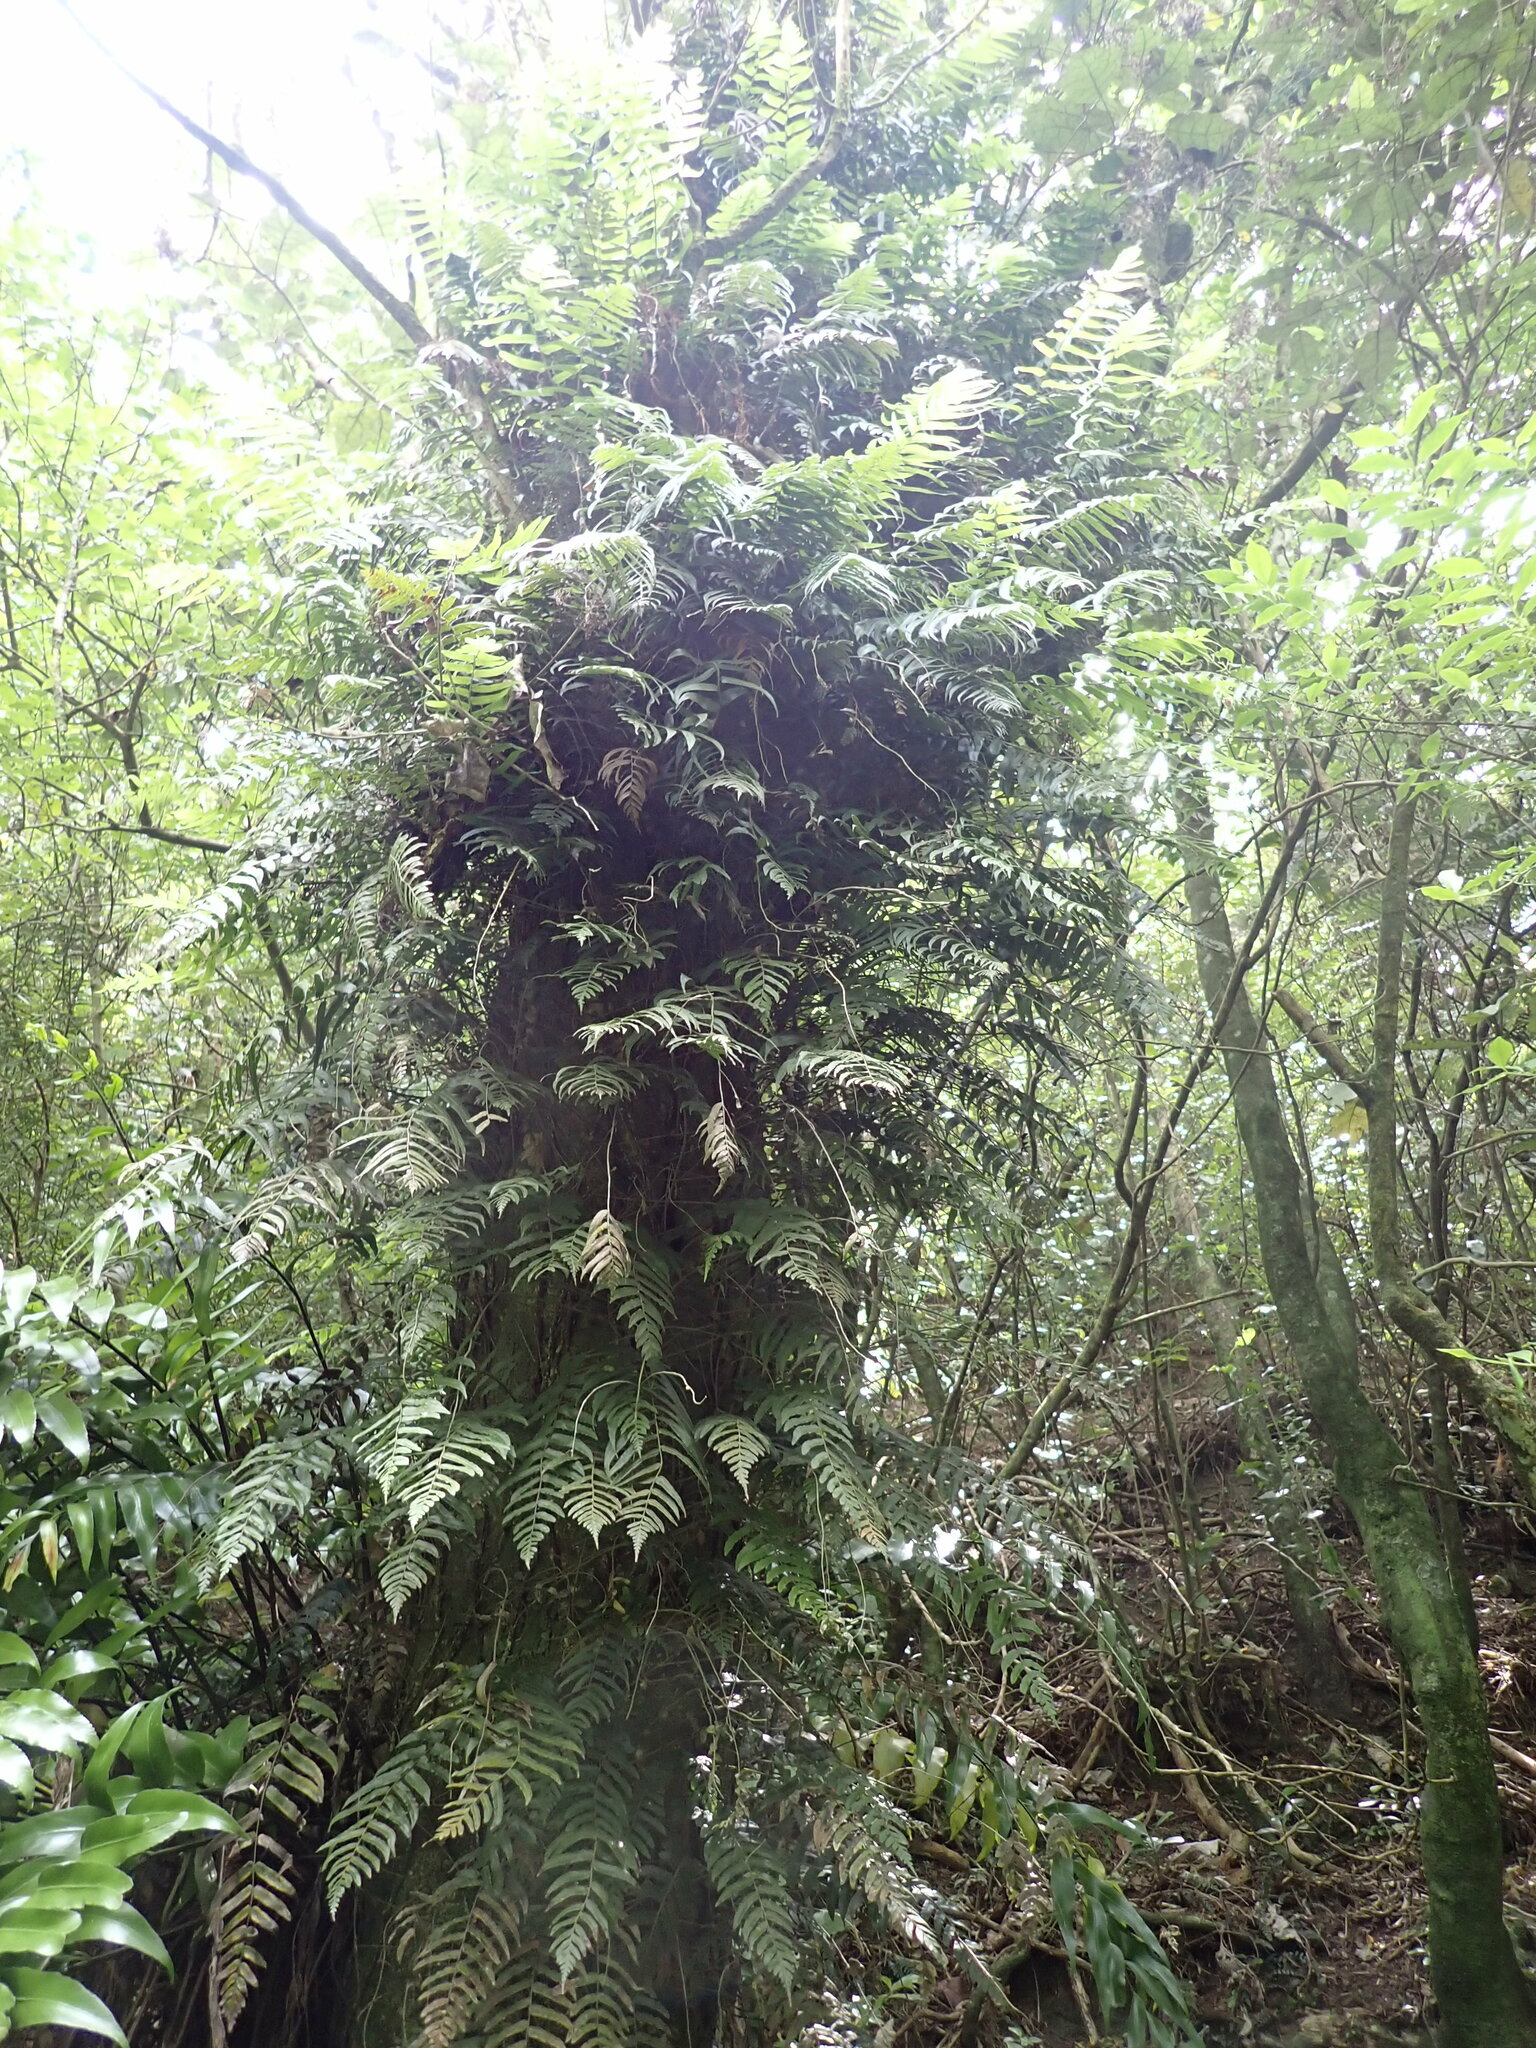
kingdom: Plantae
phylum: Tracheophyta
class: Polypodiopsida
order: Polypodiales
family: Blechnaceae
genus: Icarus
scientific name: Icarus filiformis
